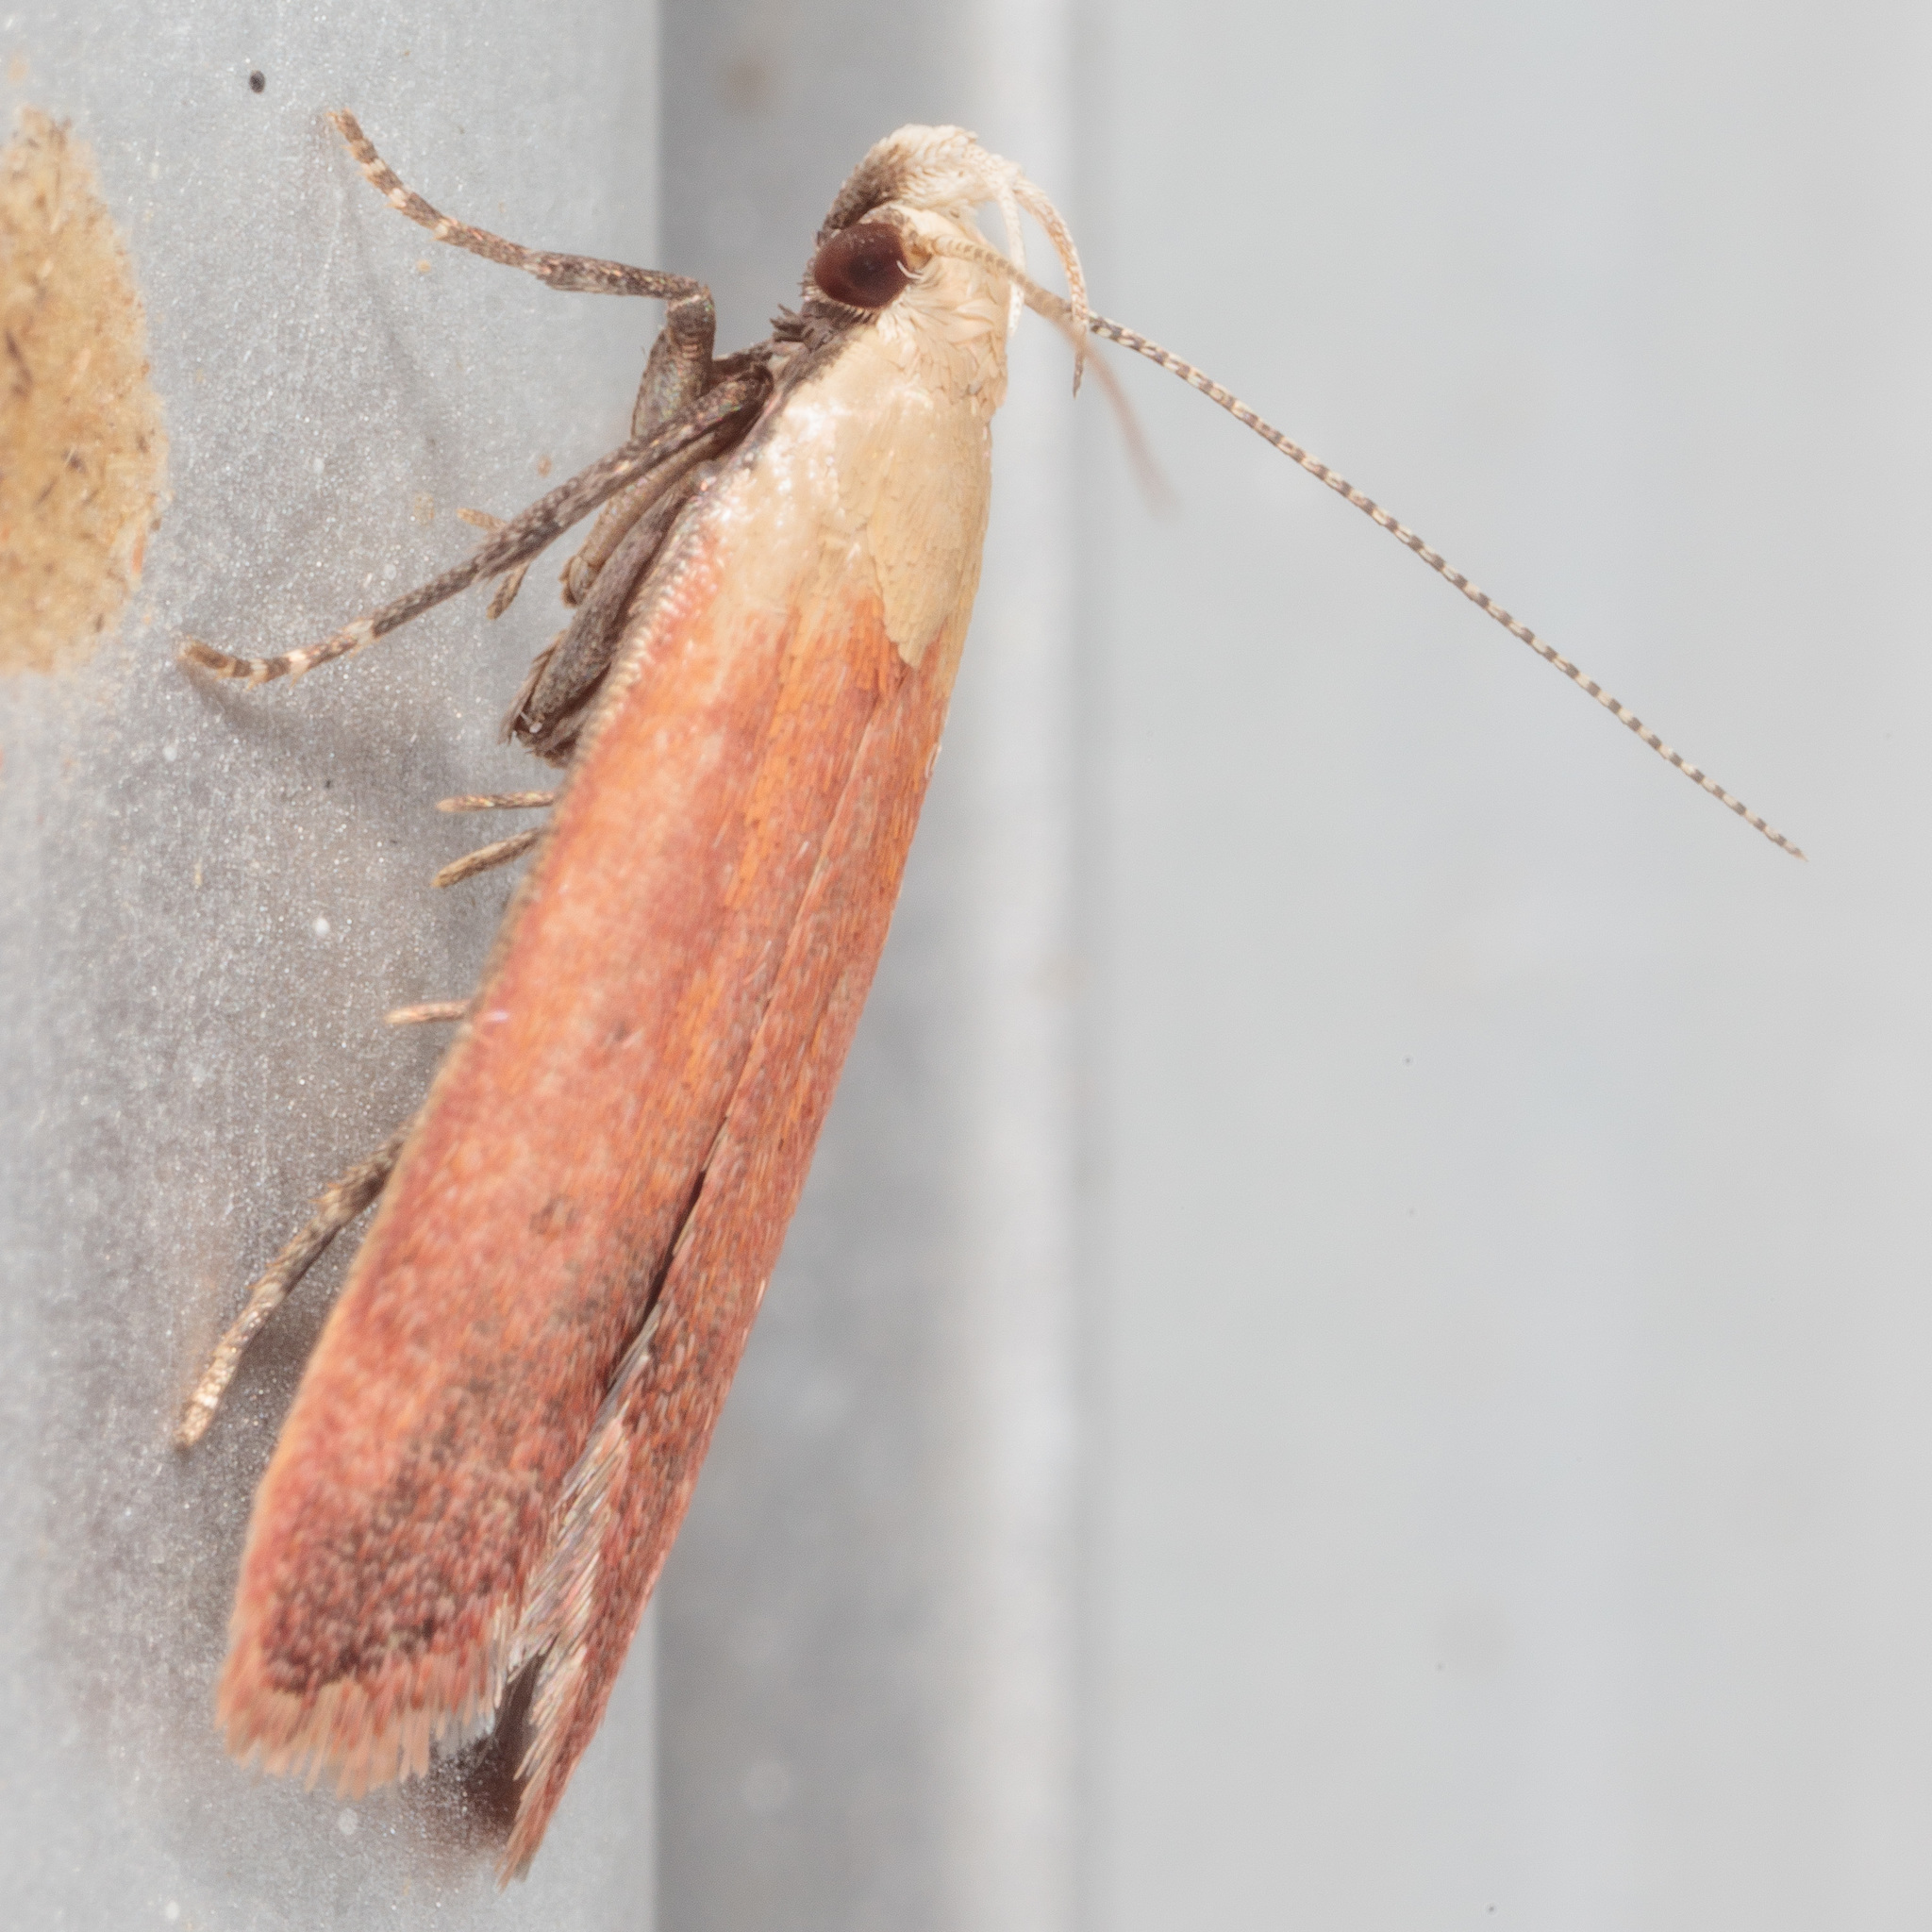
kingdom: Animalia
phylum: Arthropoda
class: Insecta
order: Lepidoptera
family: Gelechiidae
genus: Anacampsis
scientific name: Anacampsis fullonella
